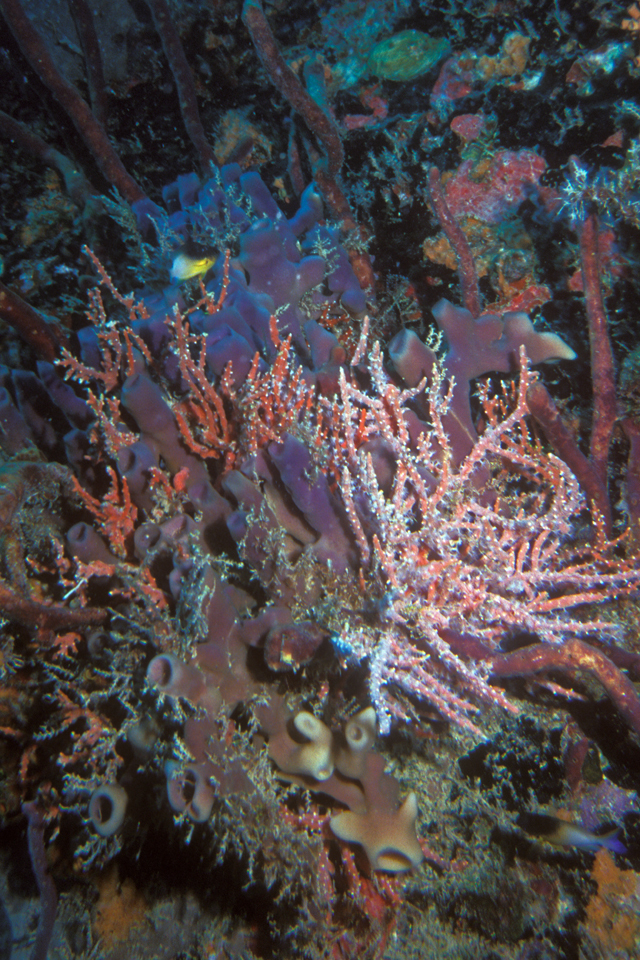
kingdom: Animalia
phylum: Chordata
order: Perciformes
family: Pomacentridae
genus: Stegastes
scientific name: Stegastes partitus
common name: Bicolor damselfish
